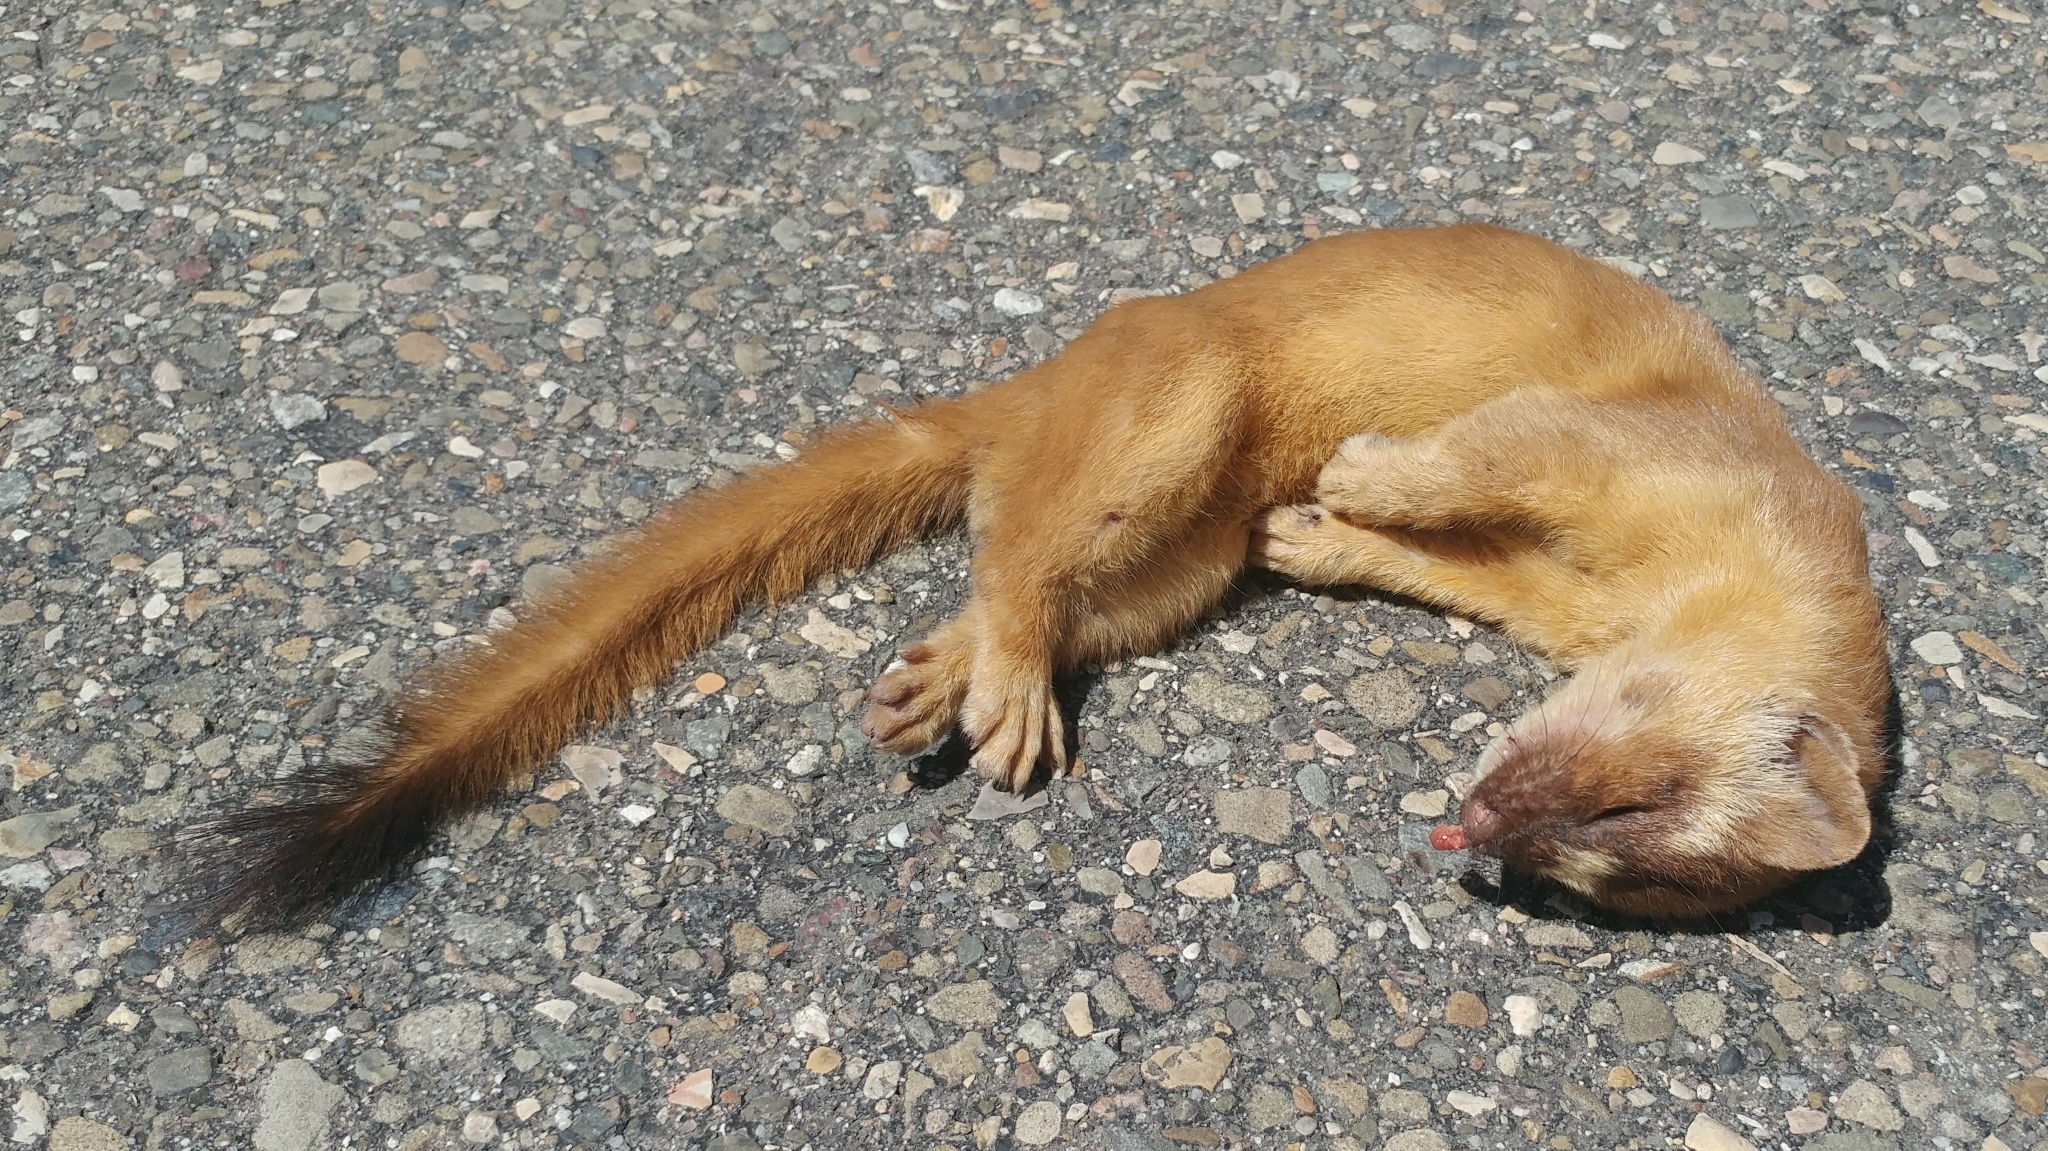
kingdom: Animalia
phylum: Chordata
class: Mammalia
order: Carnivora
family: Mustelidae
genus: Mustela
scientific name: Mustela
